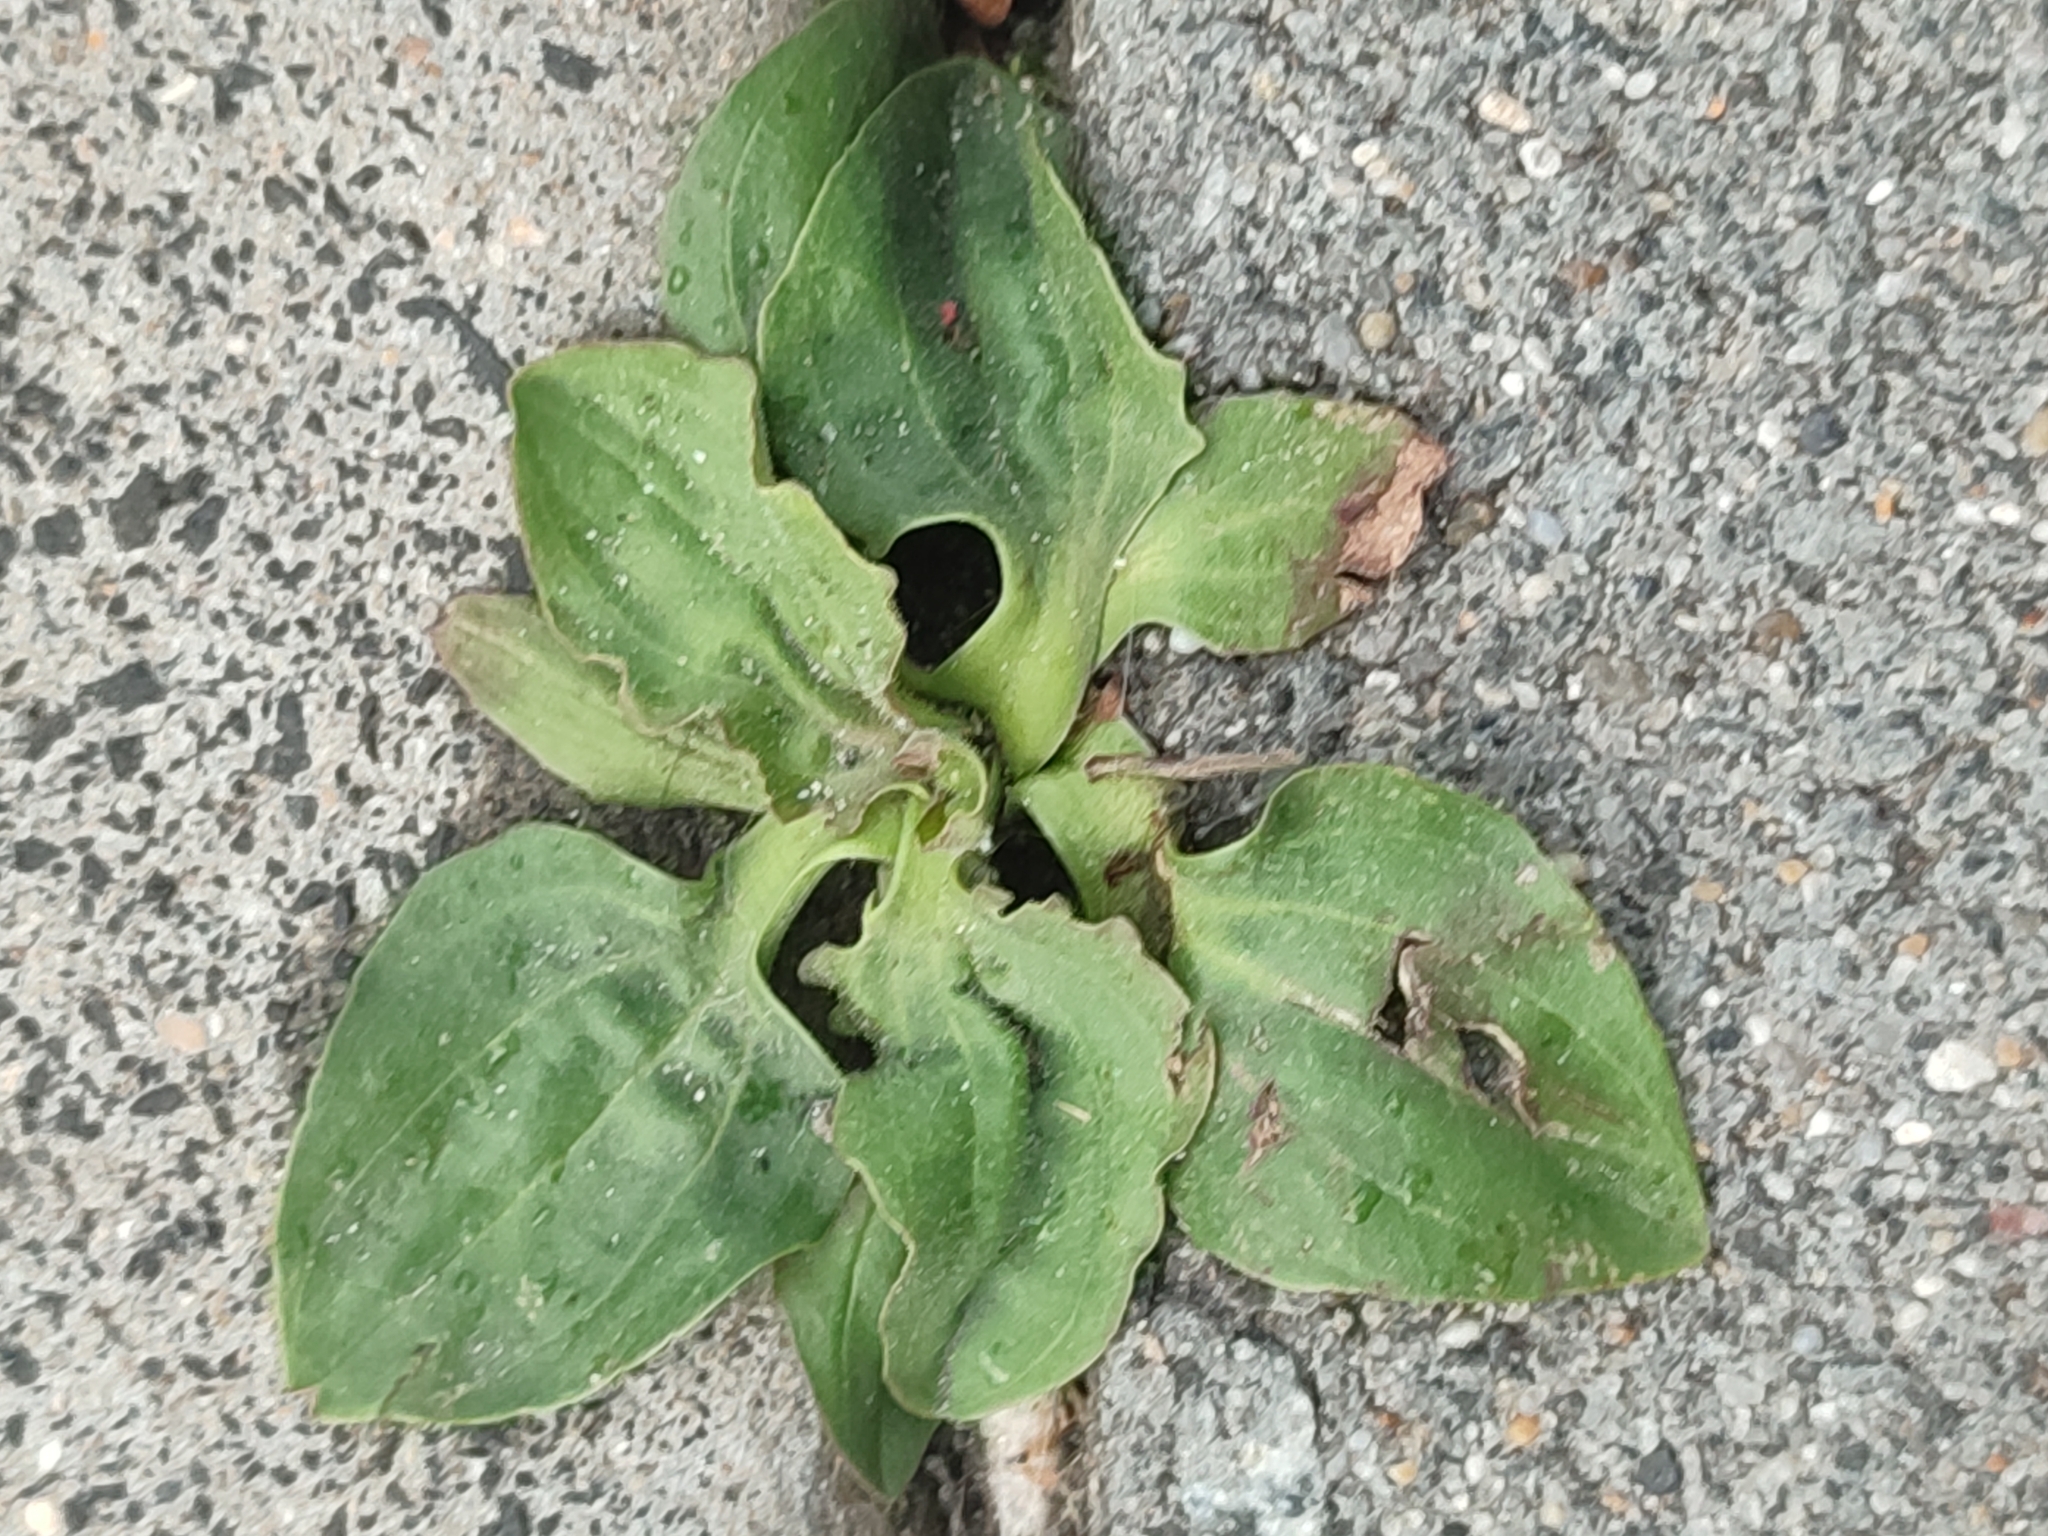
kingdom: Plantae
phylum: Tracheophyta
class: Magnoliopsida
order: Lamiales
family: Plantaginaceae
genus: Plantago
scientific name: Plantago major
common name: Common plantain
